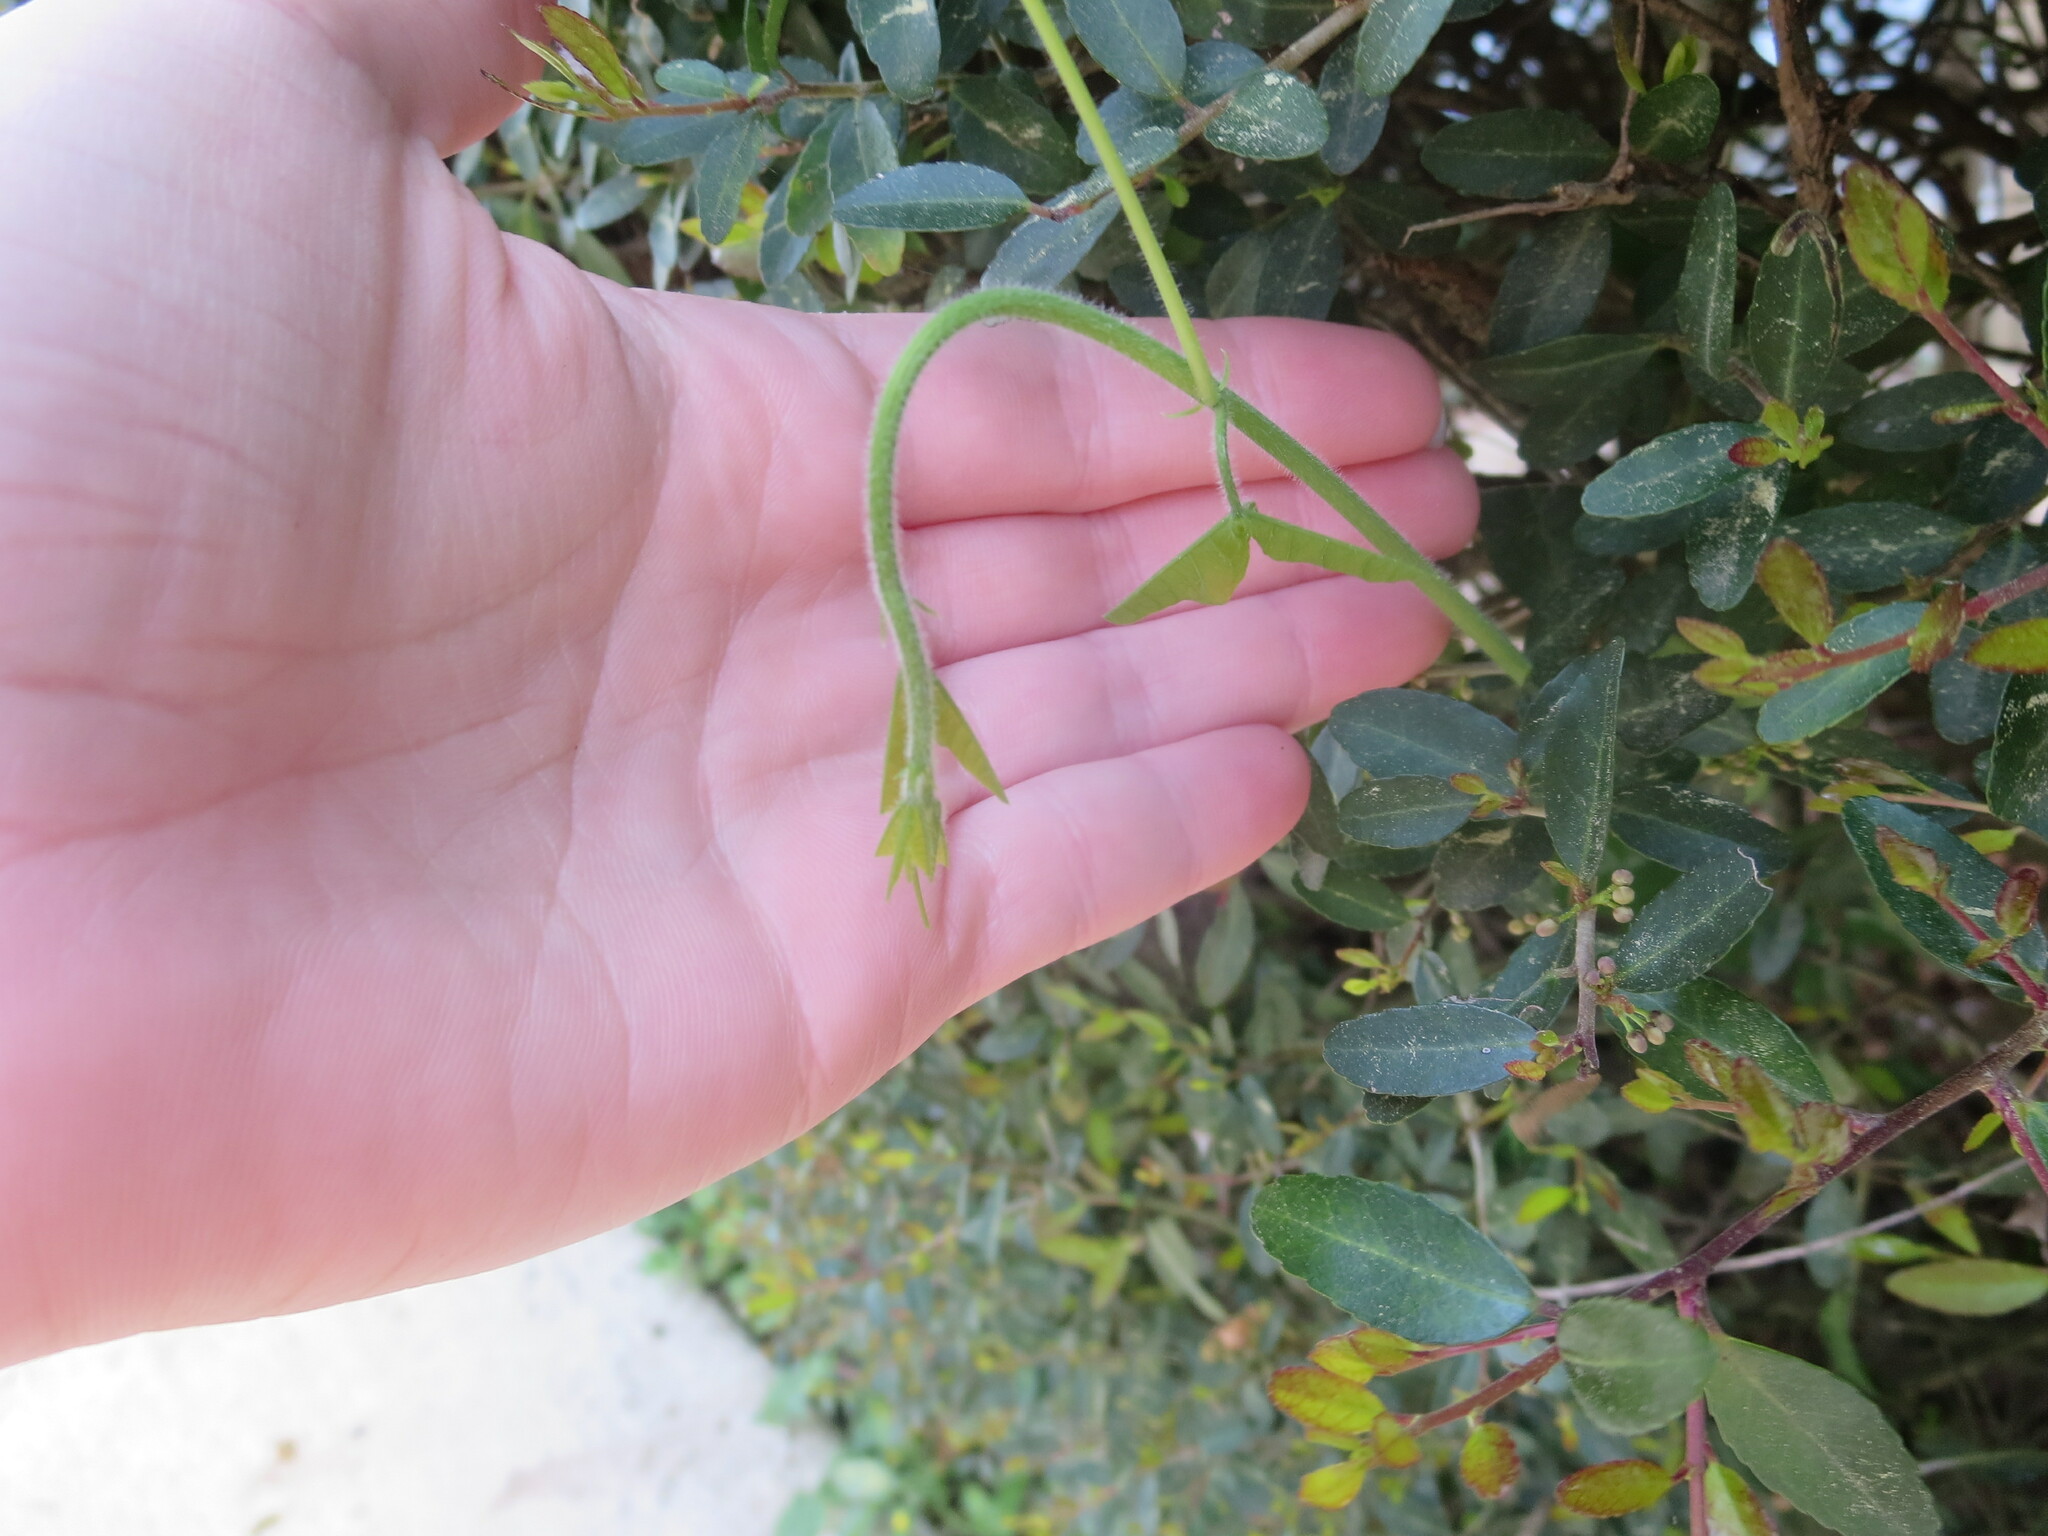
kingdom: Plantae
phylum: Tracheophyta
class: Magnoliopsida
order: Malpighiales
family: Passifloraceae
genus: Passiflora
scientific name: Passiflora lutea
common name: Yellow passionflower
